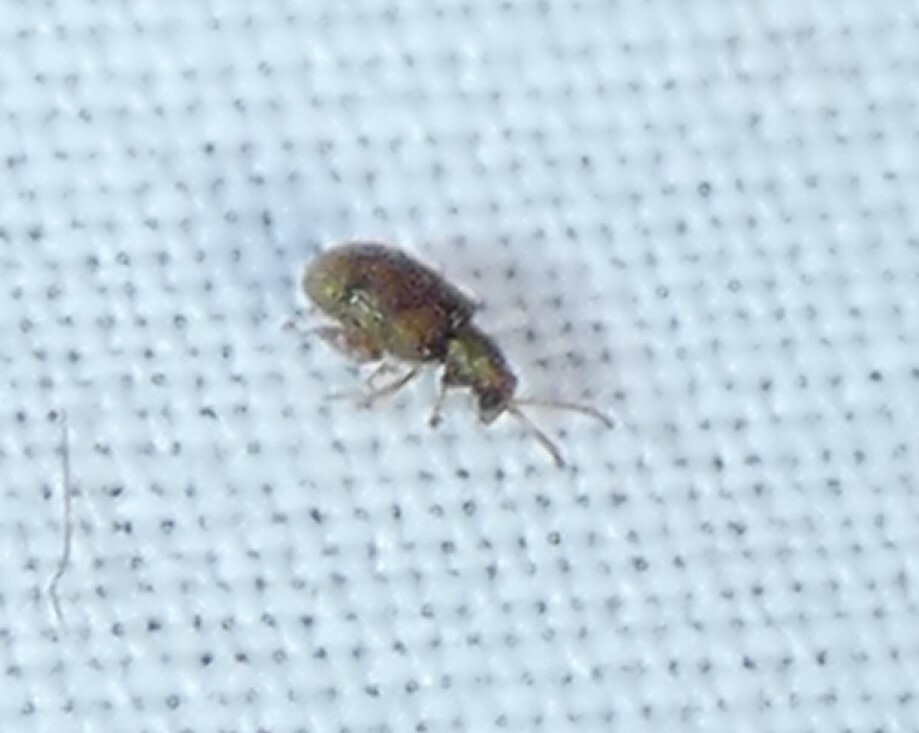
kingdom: Animalia
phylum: Arthropoda
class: Insecta
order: Coleoptera
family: Chrysomelidae
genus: Pseudolampis
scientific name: Pseudolampis guttata
